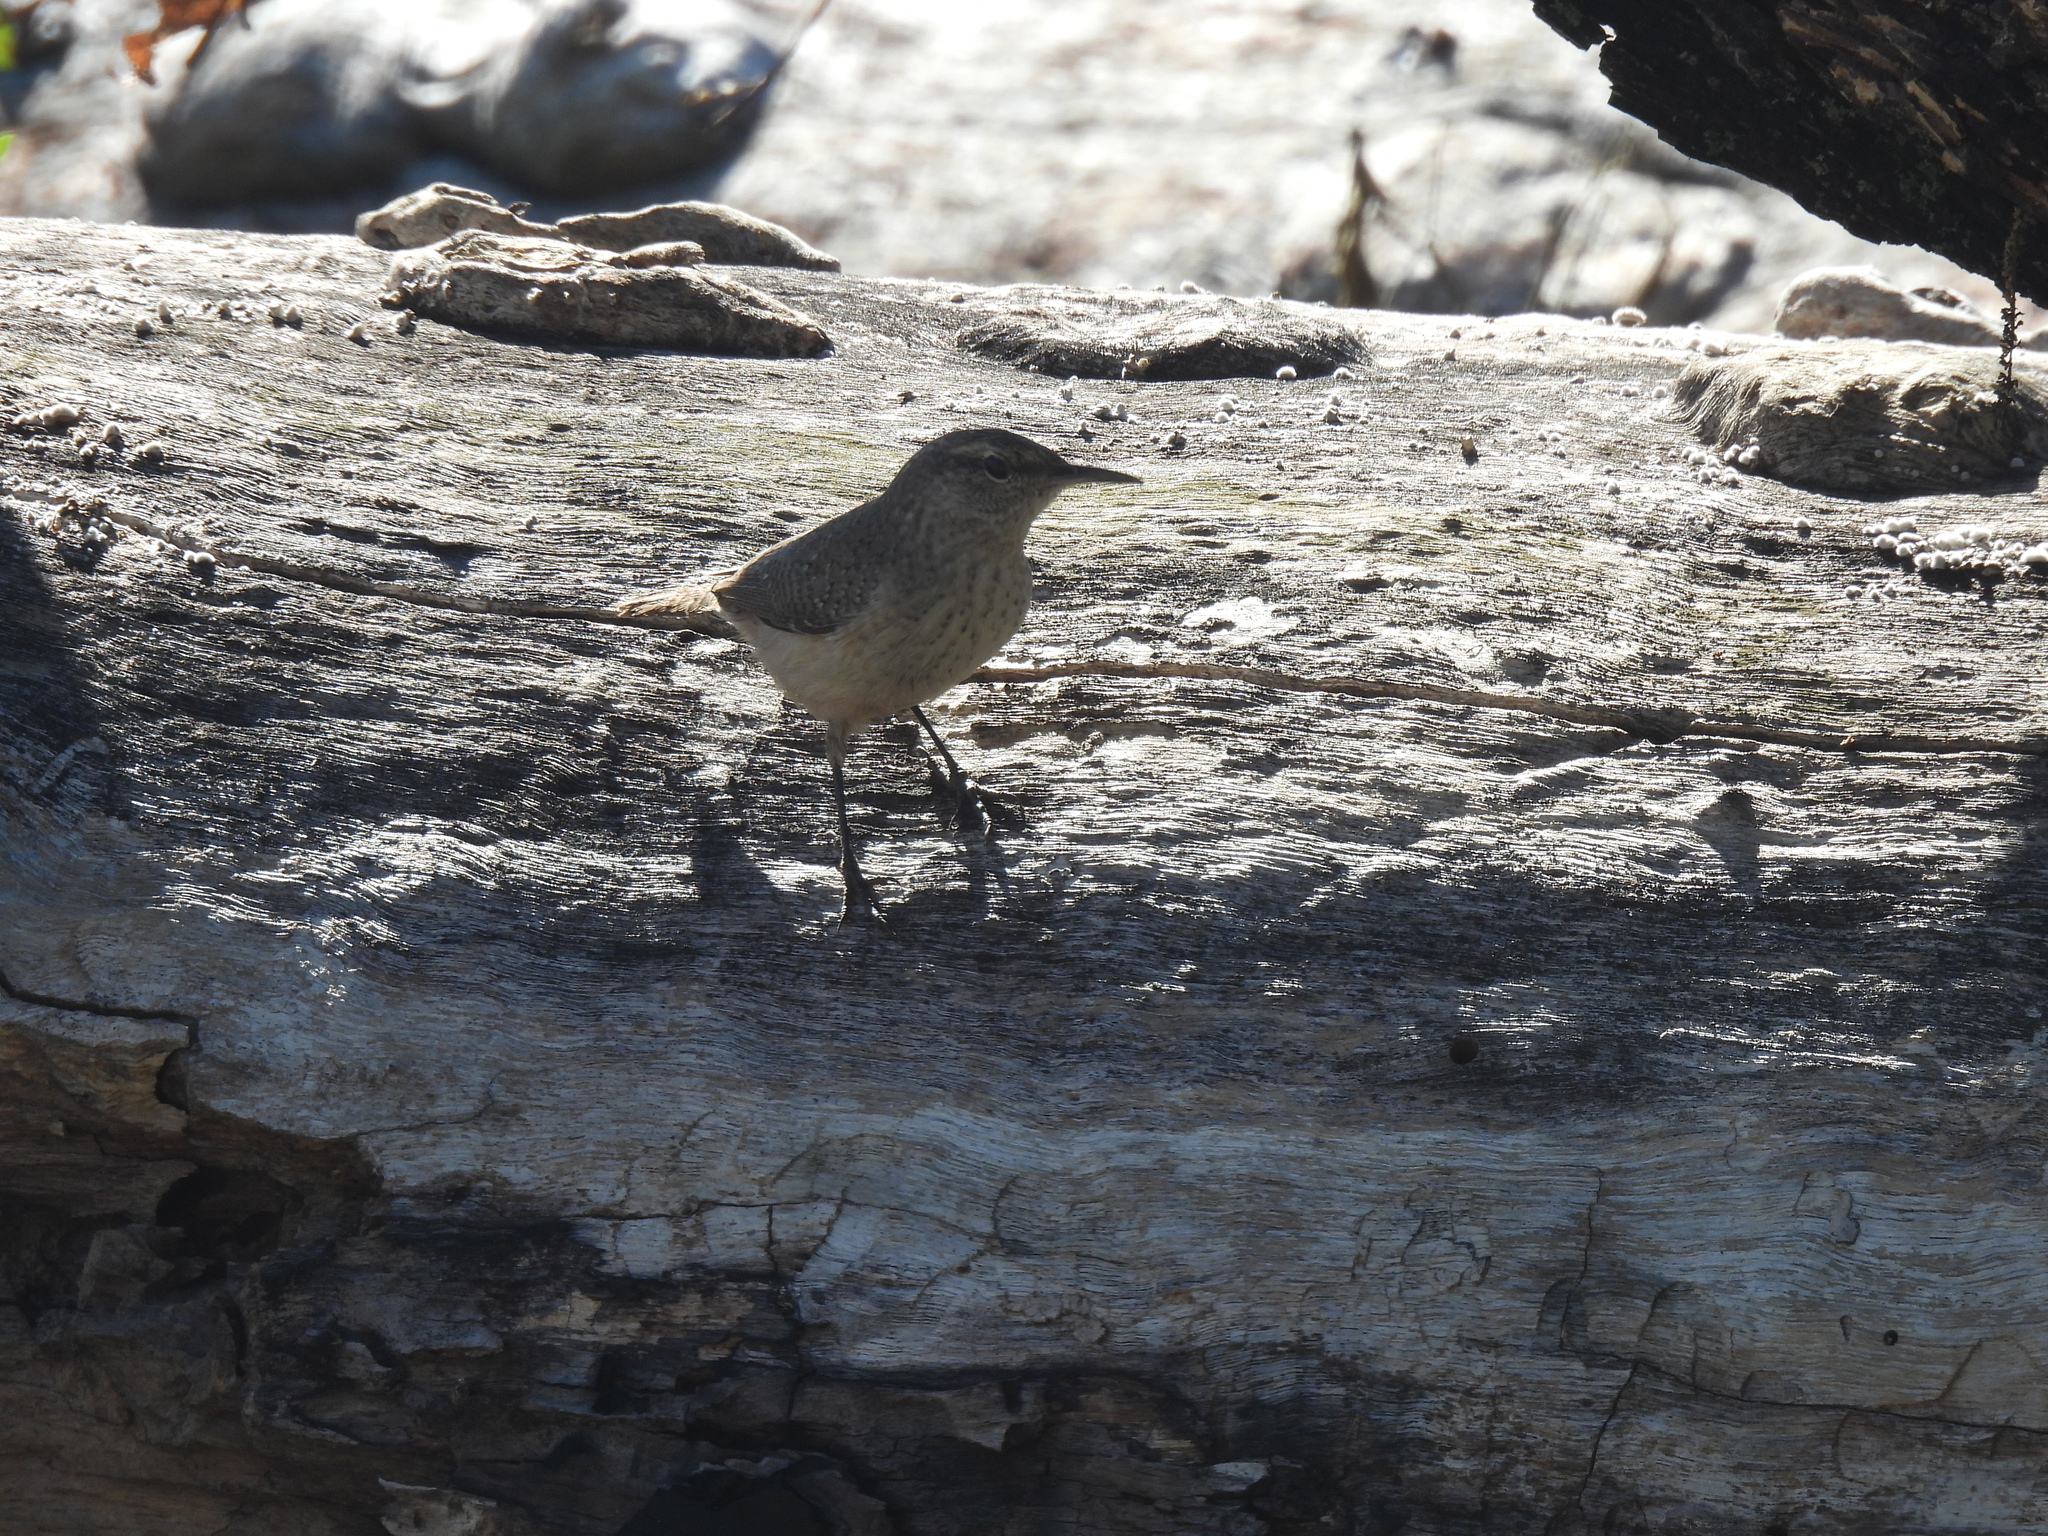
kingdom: Animalia
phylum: Chordata
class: Aves
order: Passeriformes
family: Troglodytidae
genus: Salpinctes
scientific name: Salpinctes obsoletus
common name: Rock wren
